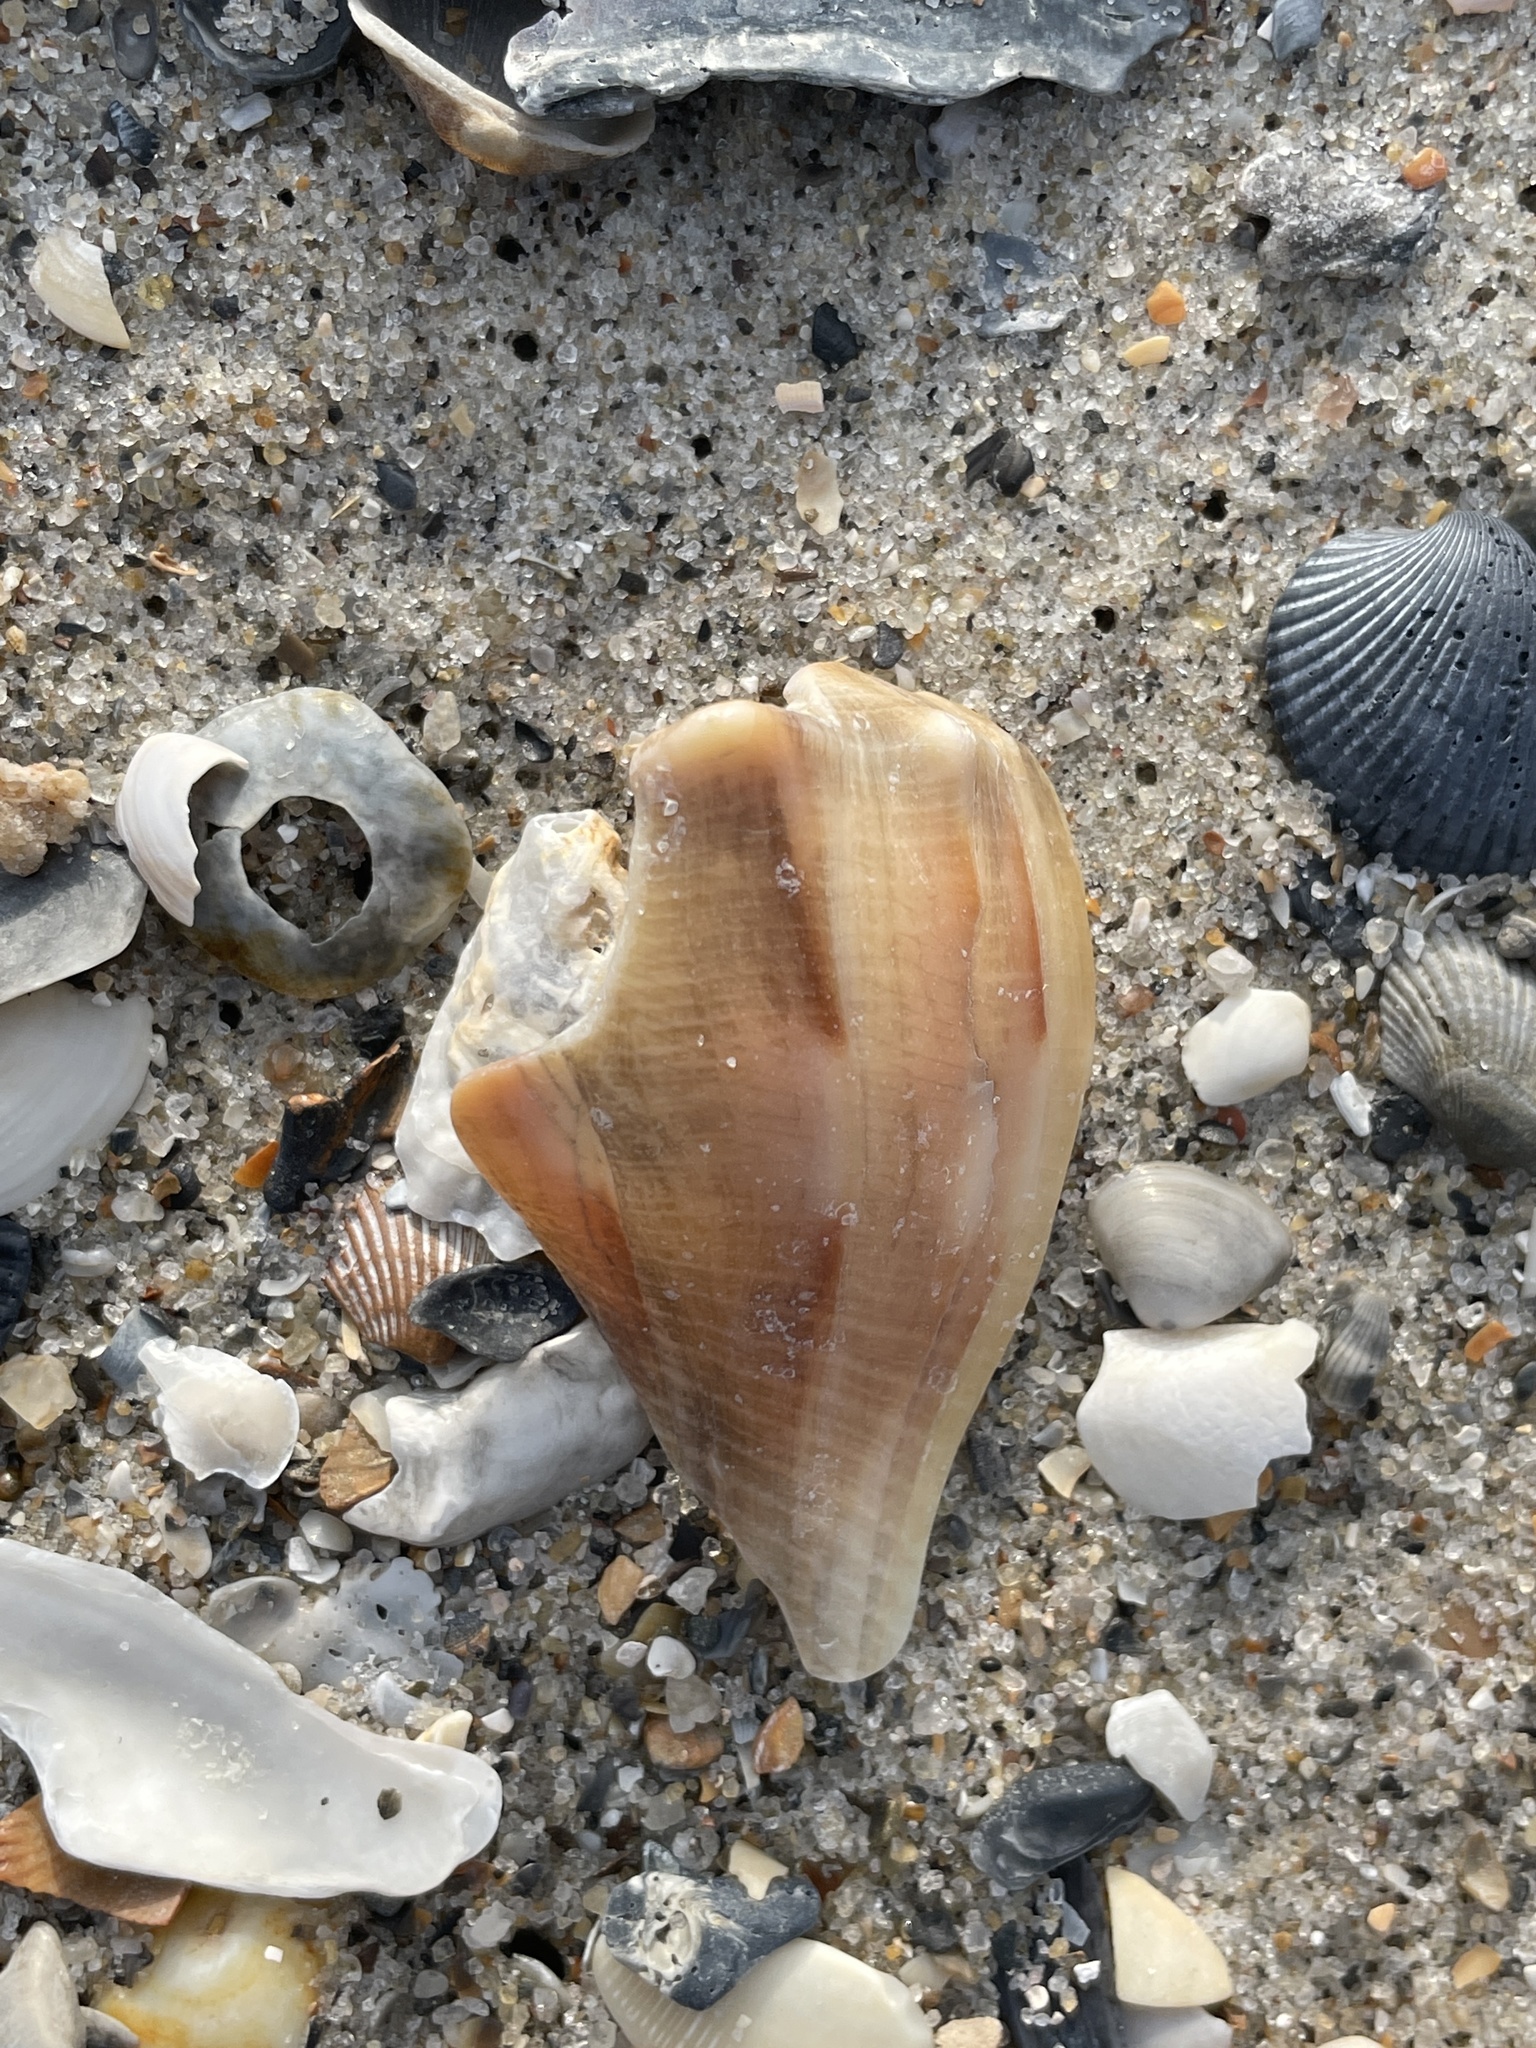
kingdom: Animalia
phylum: Mollusca
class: Gastropoda
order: Neogastropoda
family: Busyconidae
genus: Sinistrofulgur
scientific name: Sinistrofulgur sinistrum
